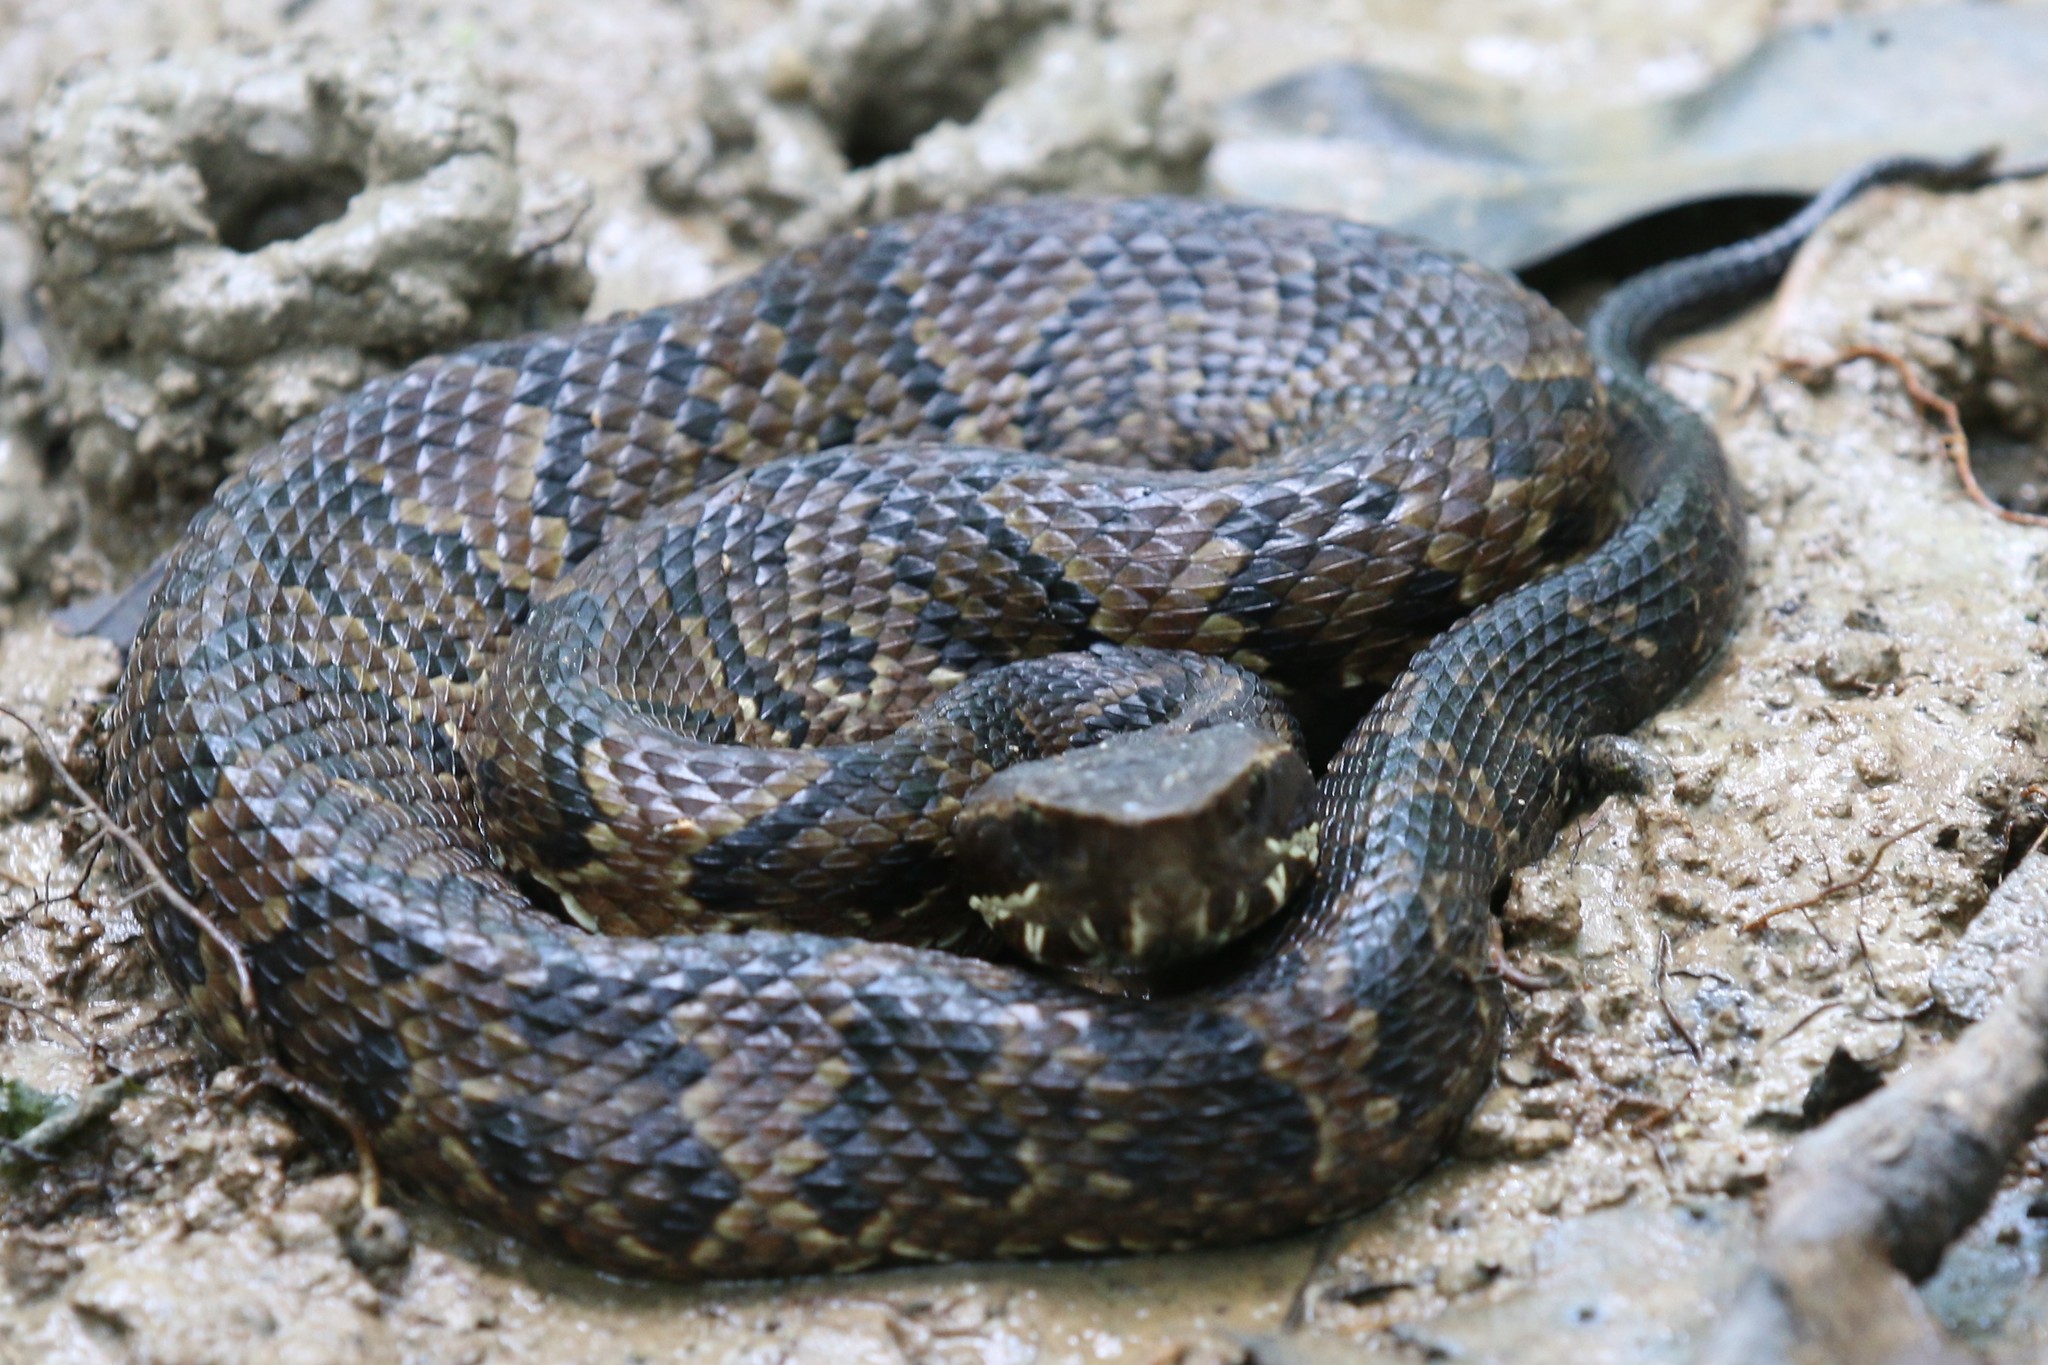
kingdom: Animalia
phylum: Chordata
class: Squamata
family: Viperidae
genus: Agkistrodon
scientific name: Agkistrodon piscivorus
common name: Cottonmouth
